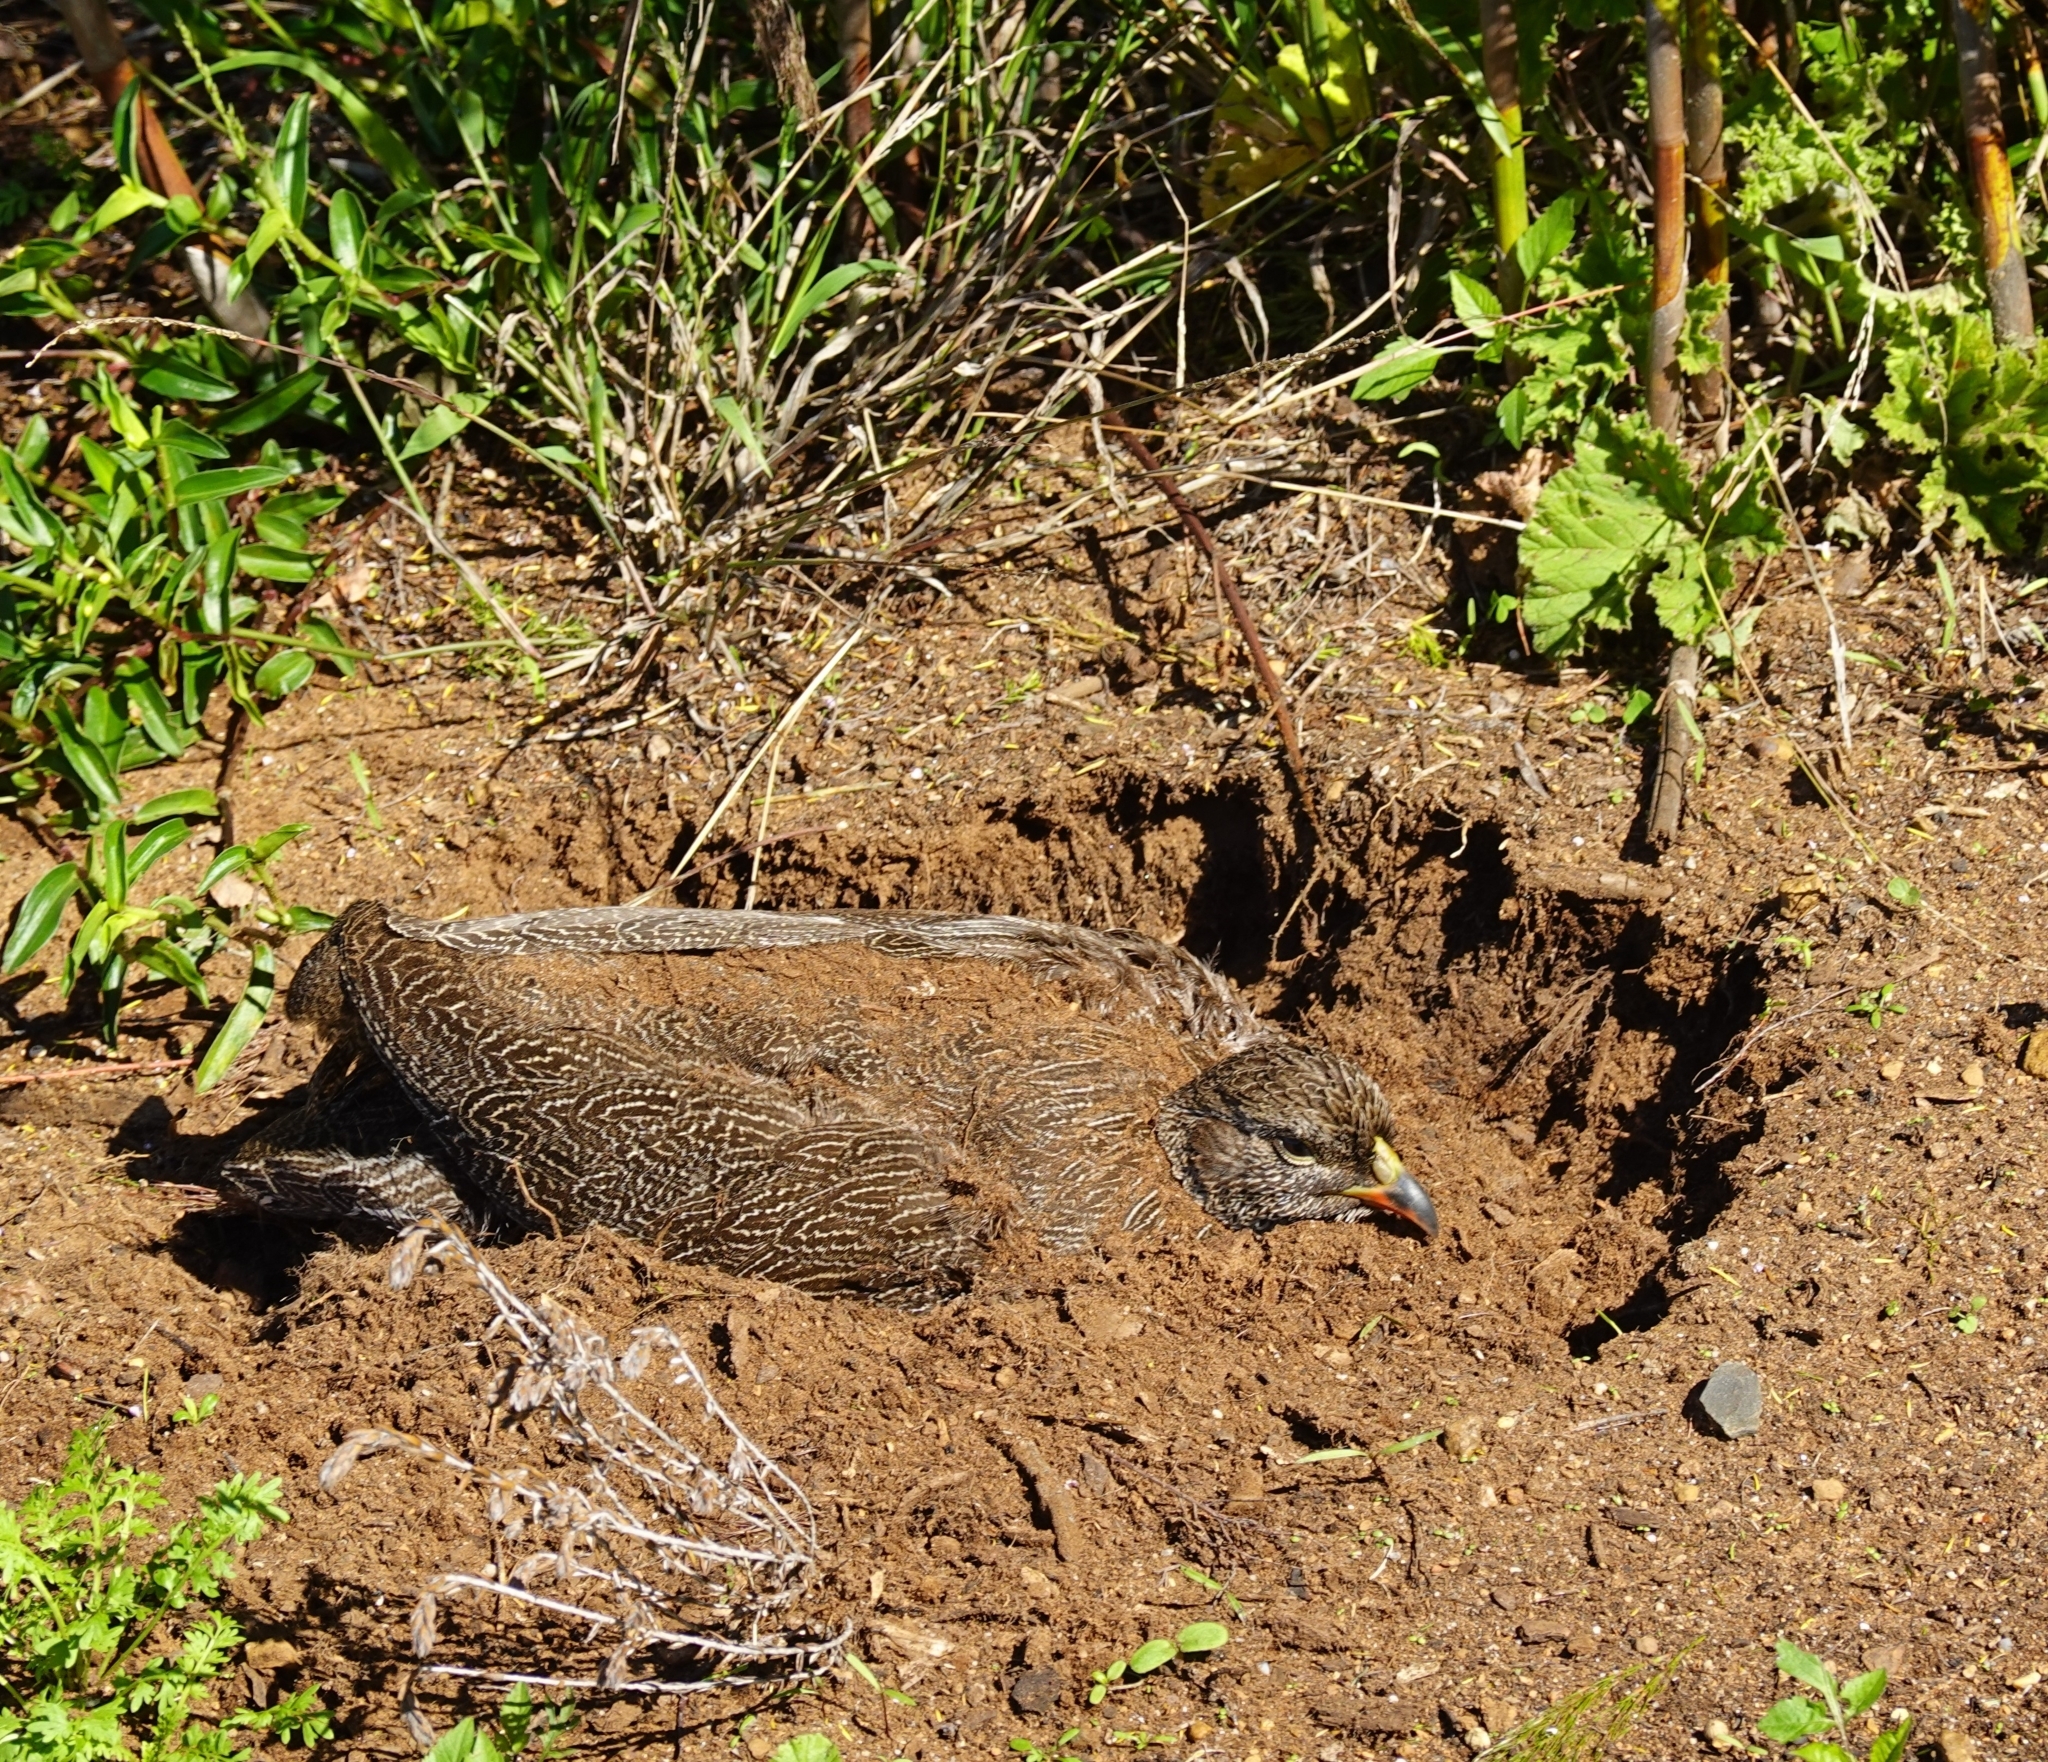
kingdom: Animalia
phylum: Chordata
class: Aves
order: Galliformes
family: Phasianidae
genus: Pternistis
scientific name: Pternistis capensis
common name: Cape spurfowl
